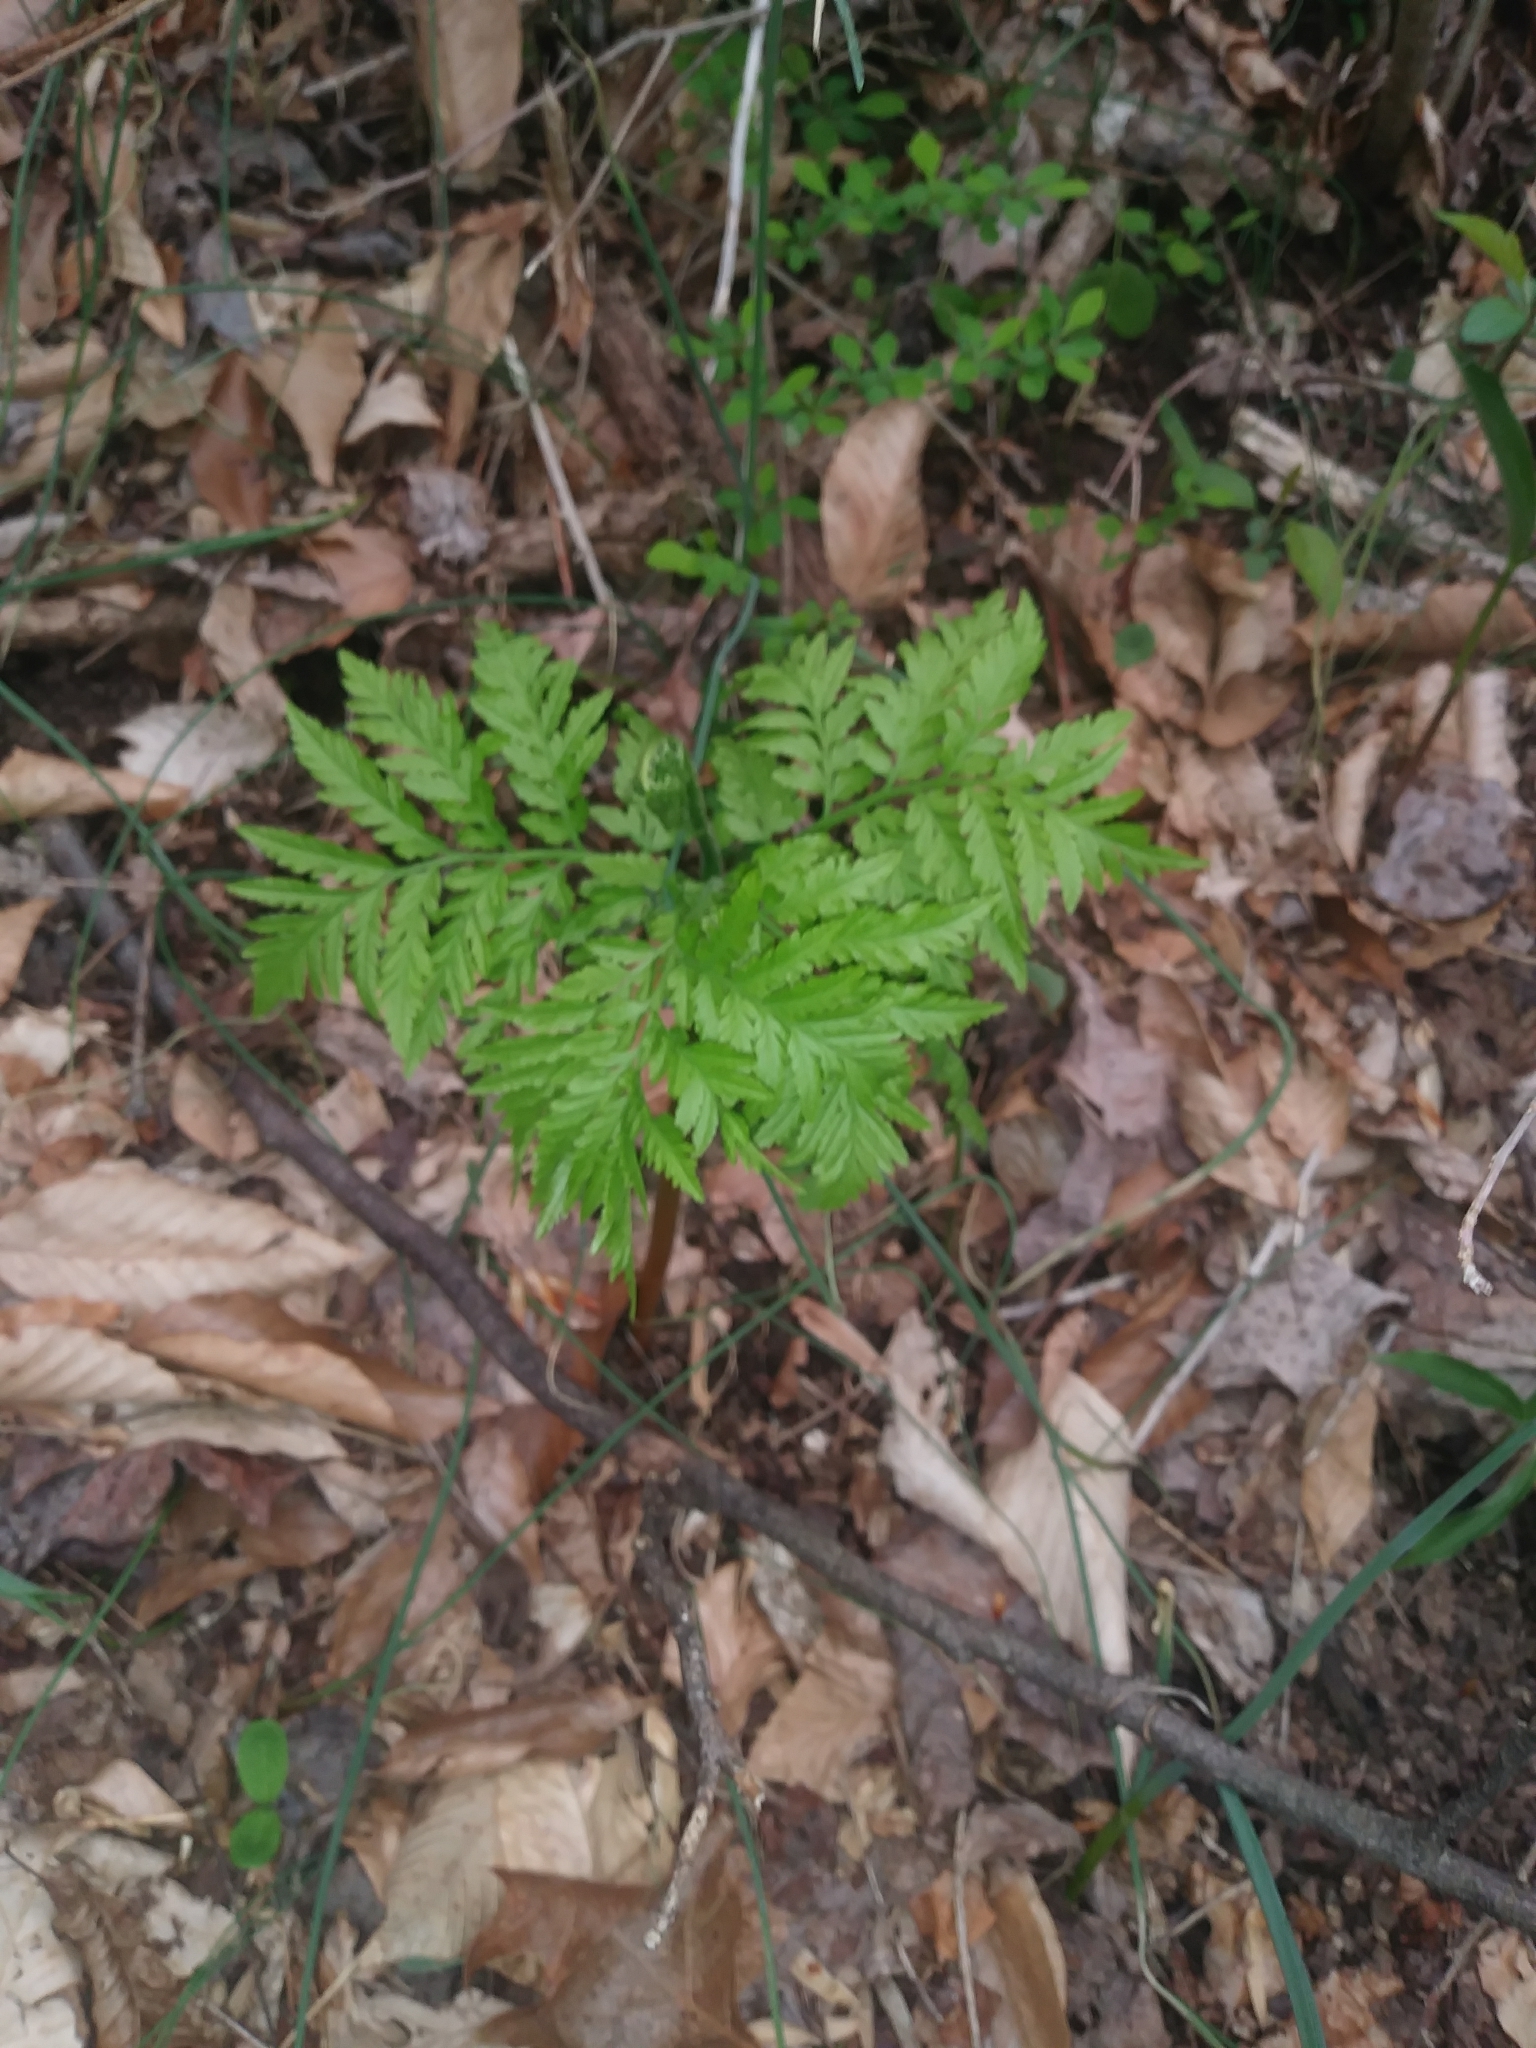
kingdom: Plantae
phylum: Tracheophyta
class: Polypodiopsida
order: Ophioglossales
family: Ophioglossaceae
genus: Botrypus
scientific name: Botrypus virginianus
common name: Common grapefern
